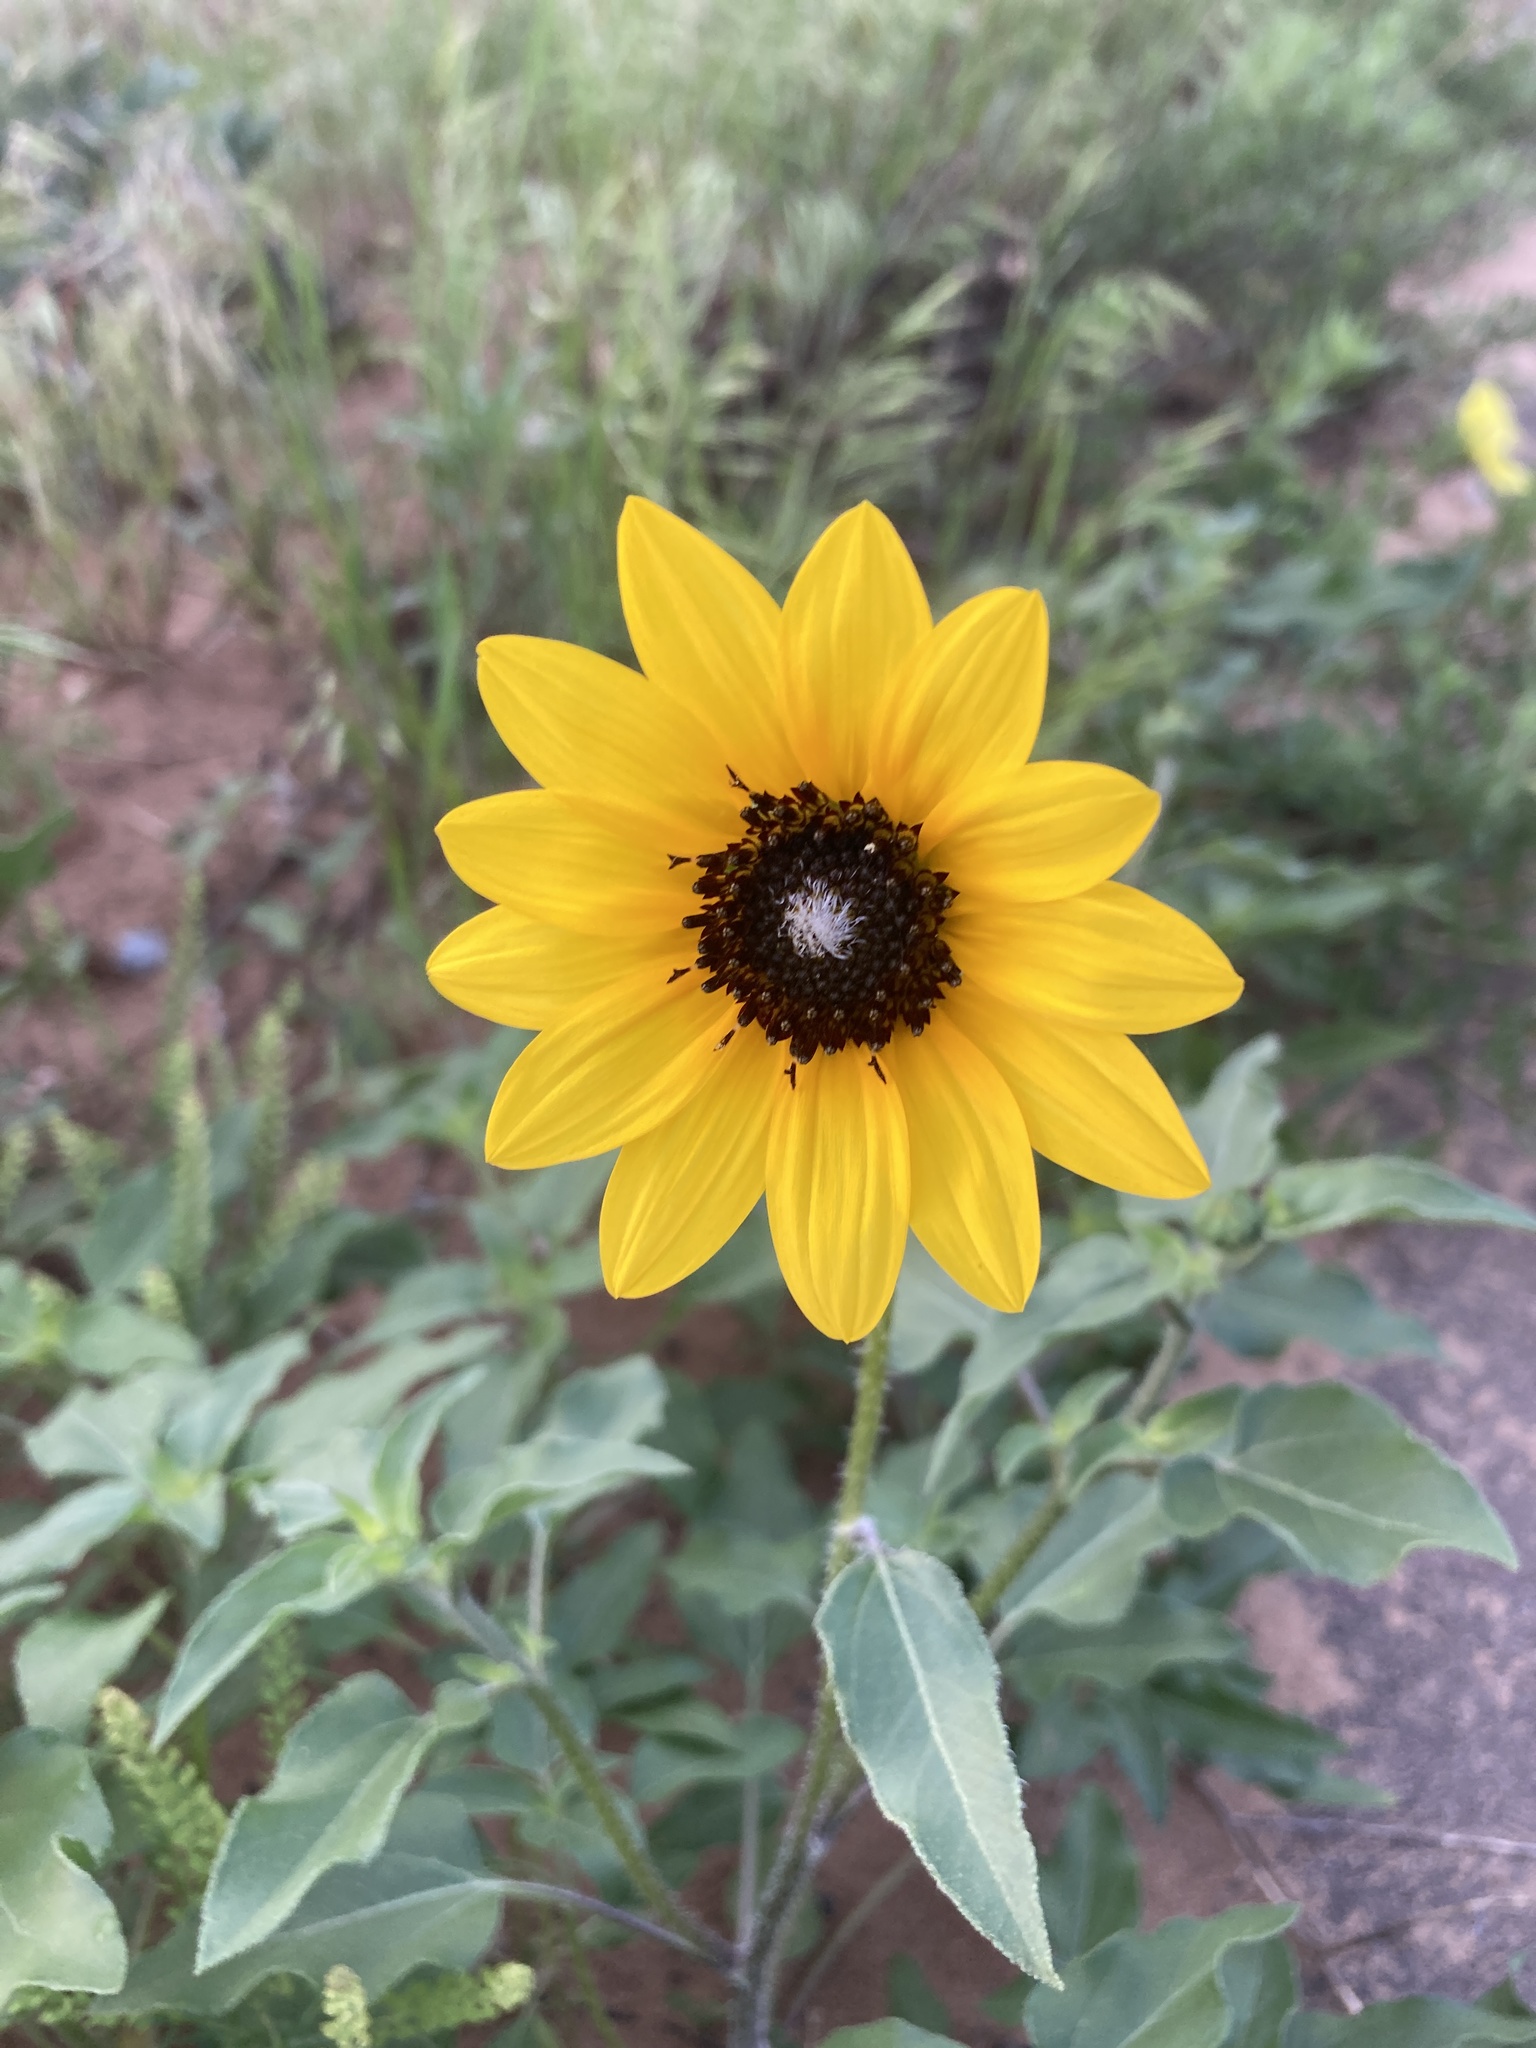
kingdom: Plantae
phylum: Tracheophyta
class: Magnoliopsida
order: Asterales
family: Asteraceae
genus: Helianthus
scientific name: Helianthus petiolaris
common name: Lesser sunflower
